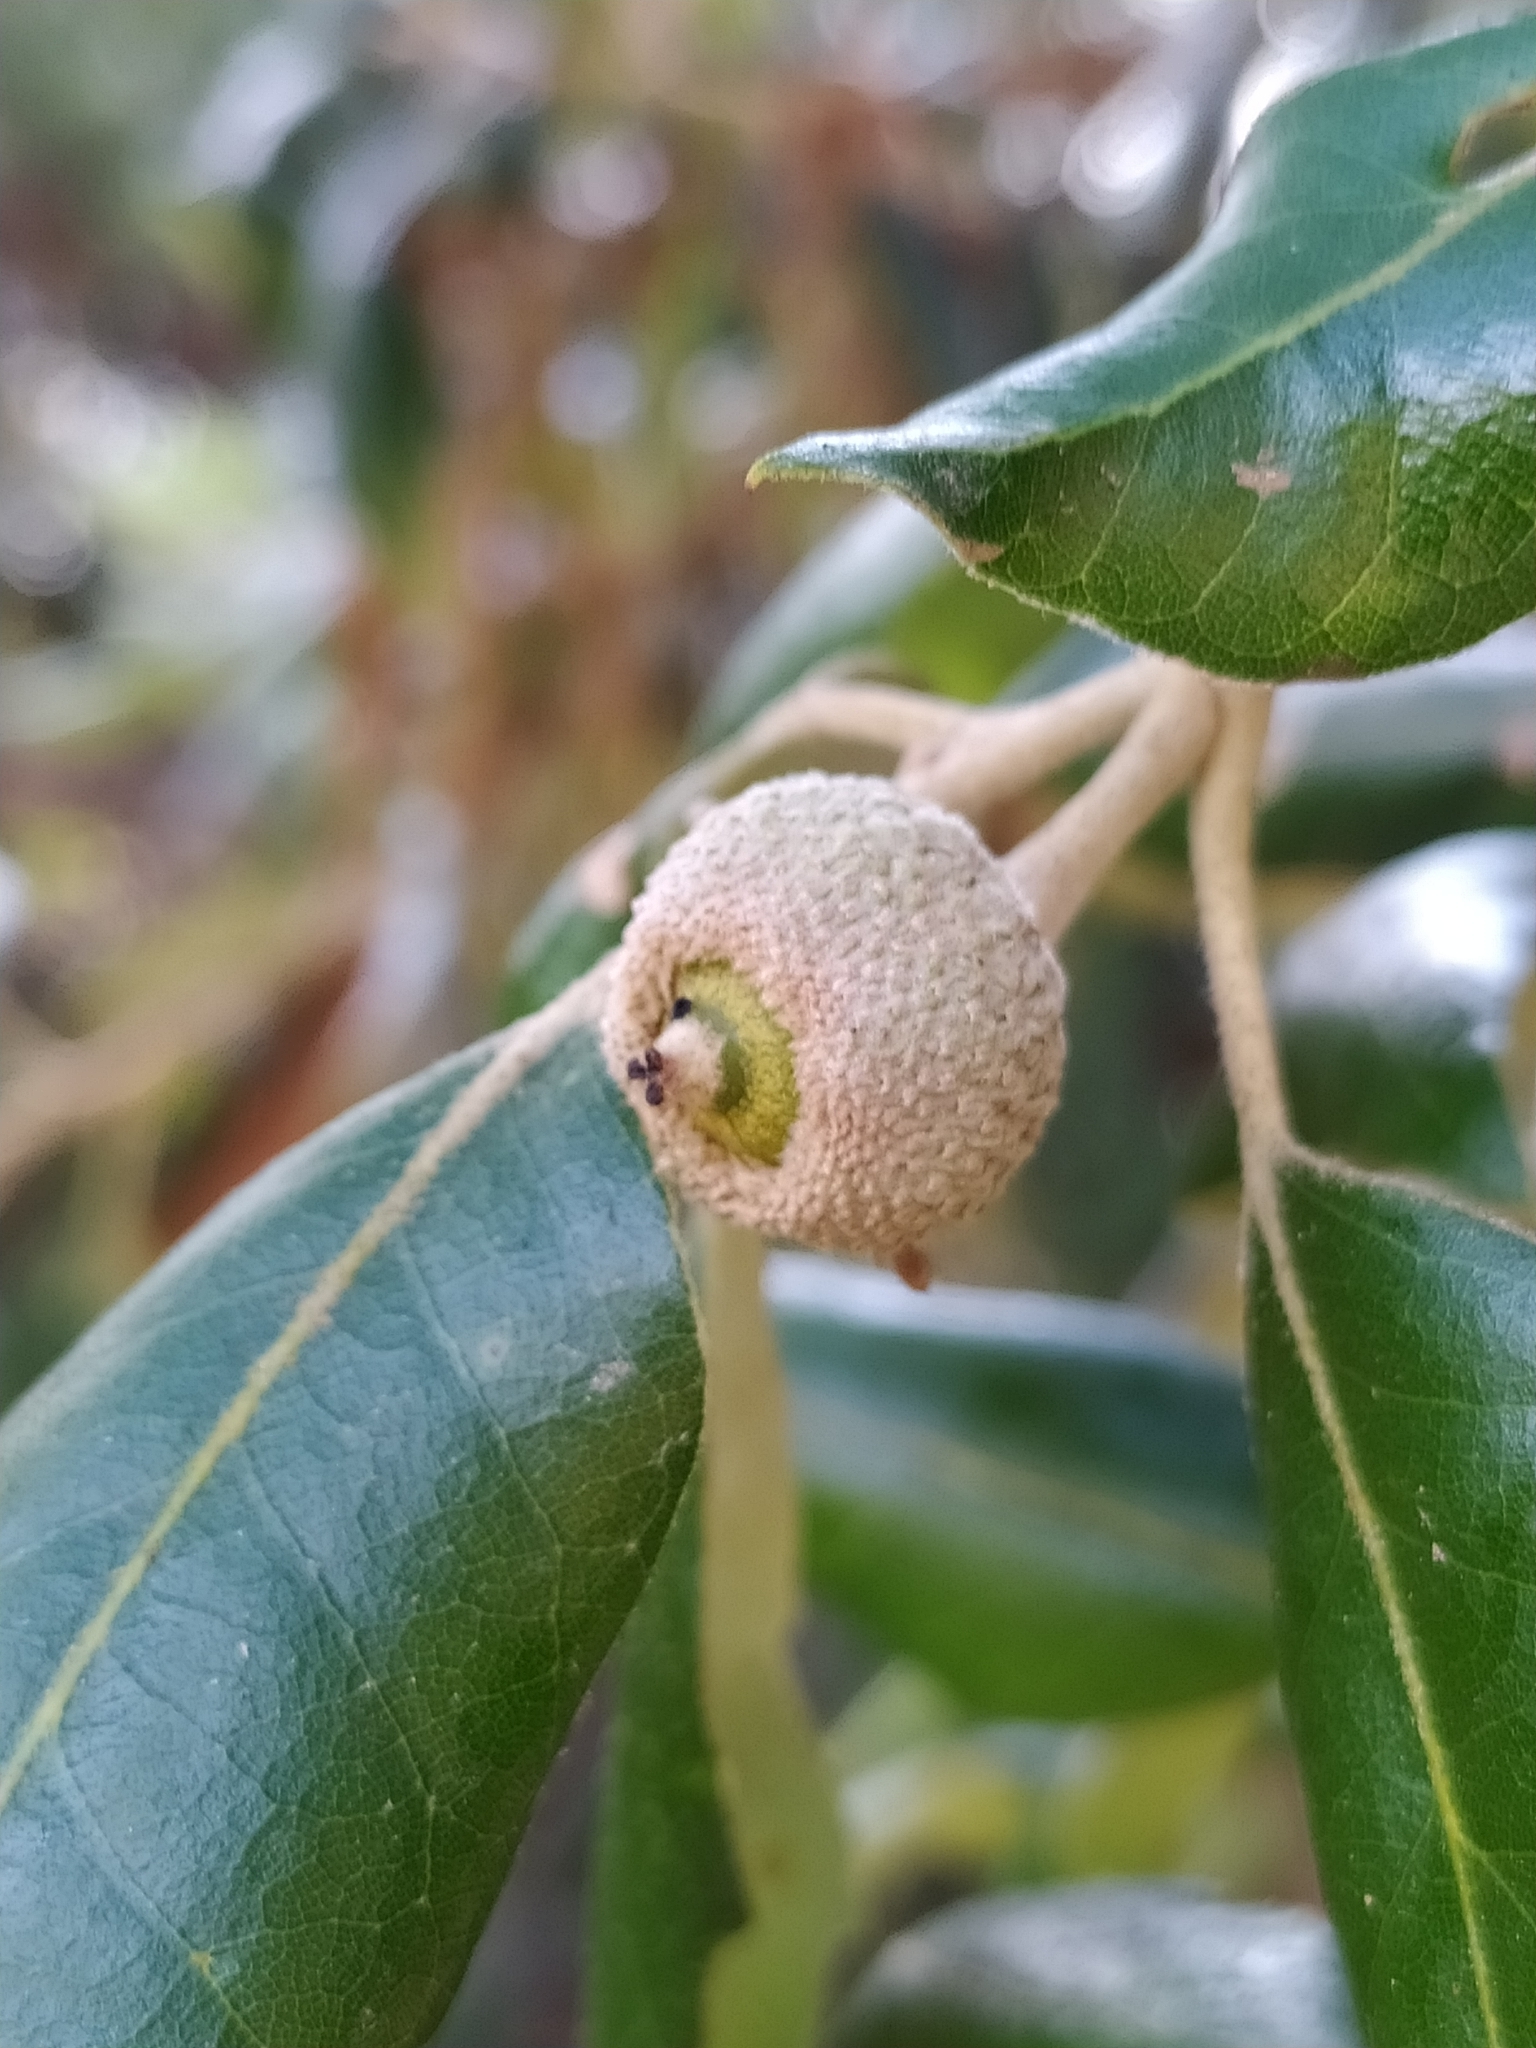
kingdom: Plantae
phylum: Tracheophyta
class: Magnoliopsida
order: Fagales
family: Fagaceae
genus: Quercus
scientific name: Quercus ilex
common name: Evergreen oak
